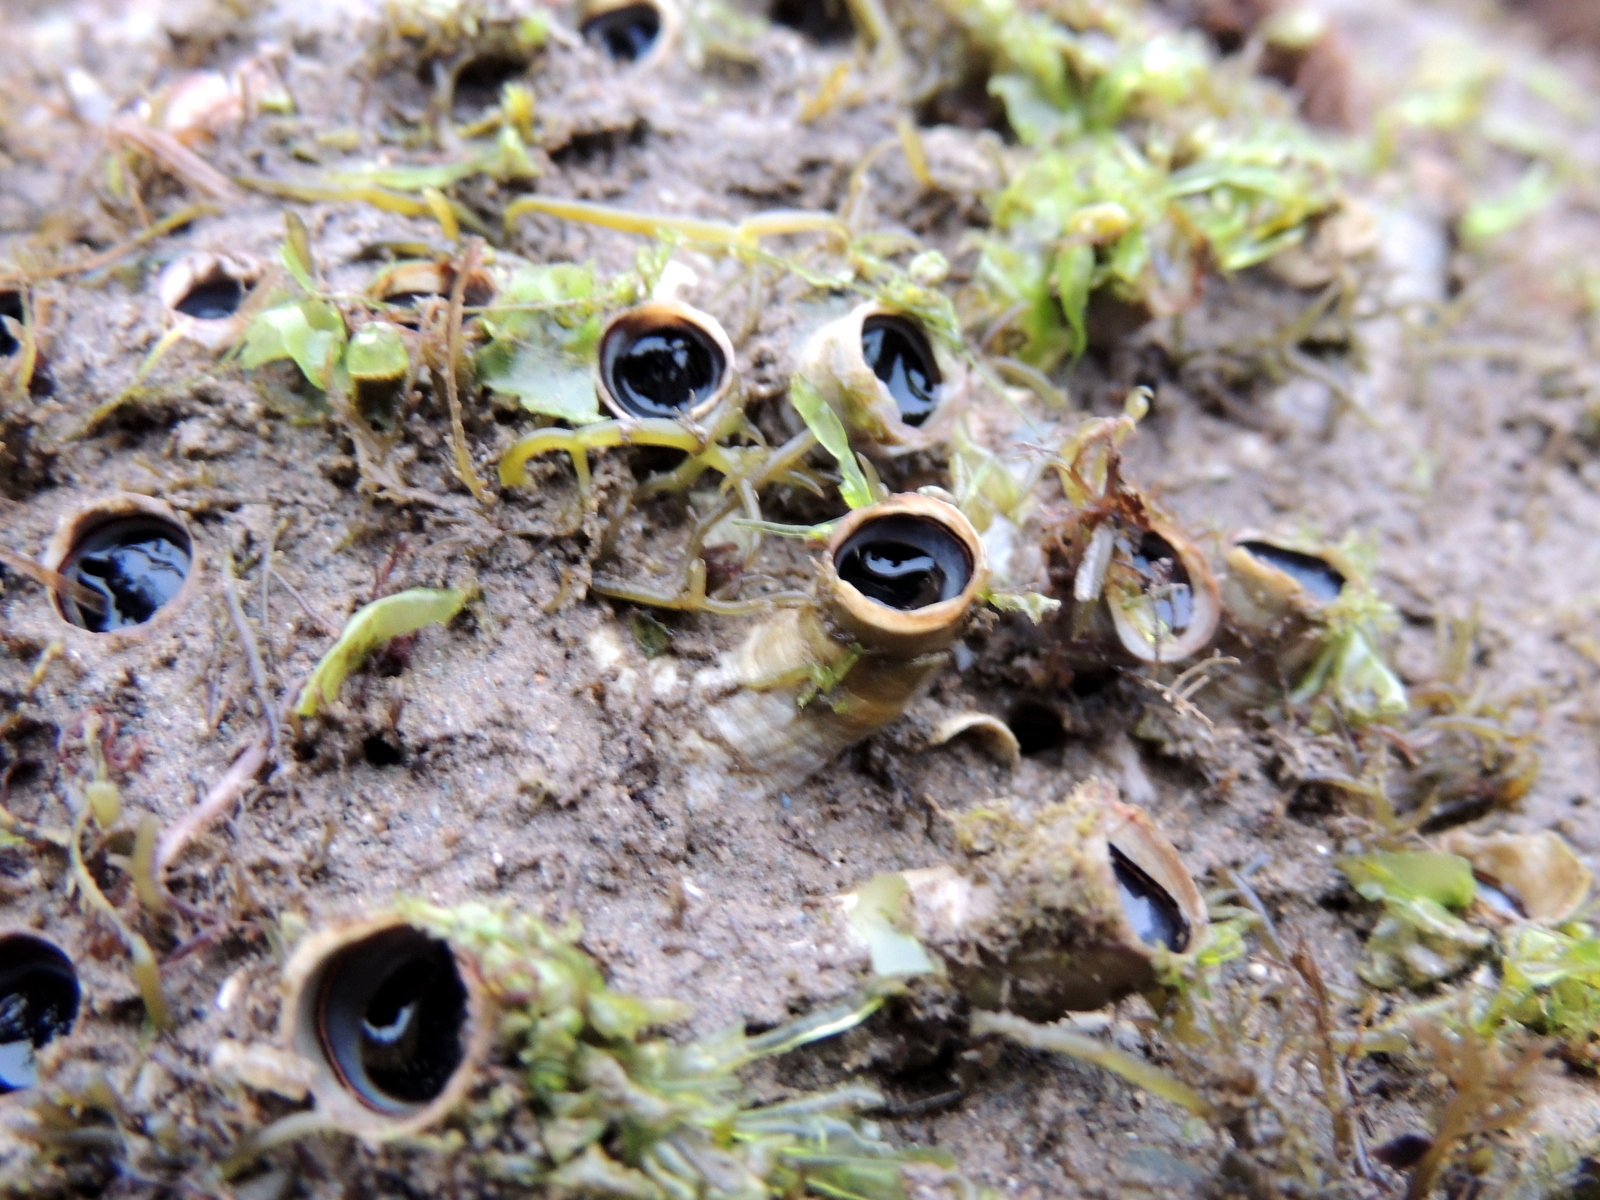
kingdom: Animalia
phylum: Mollusca
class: Gastropoda
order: Littorinimorpha
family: Vermetidae
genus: Thylacodes
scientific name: Thylacodes squamigerus
